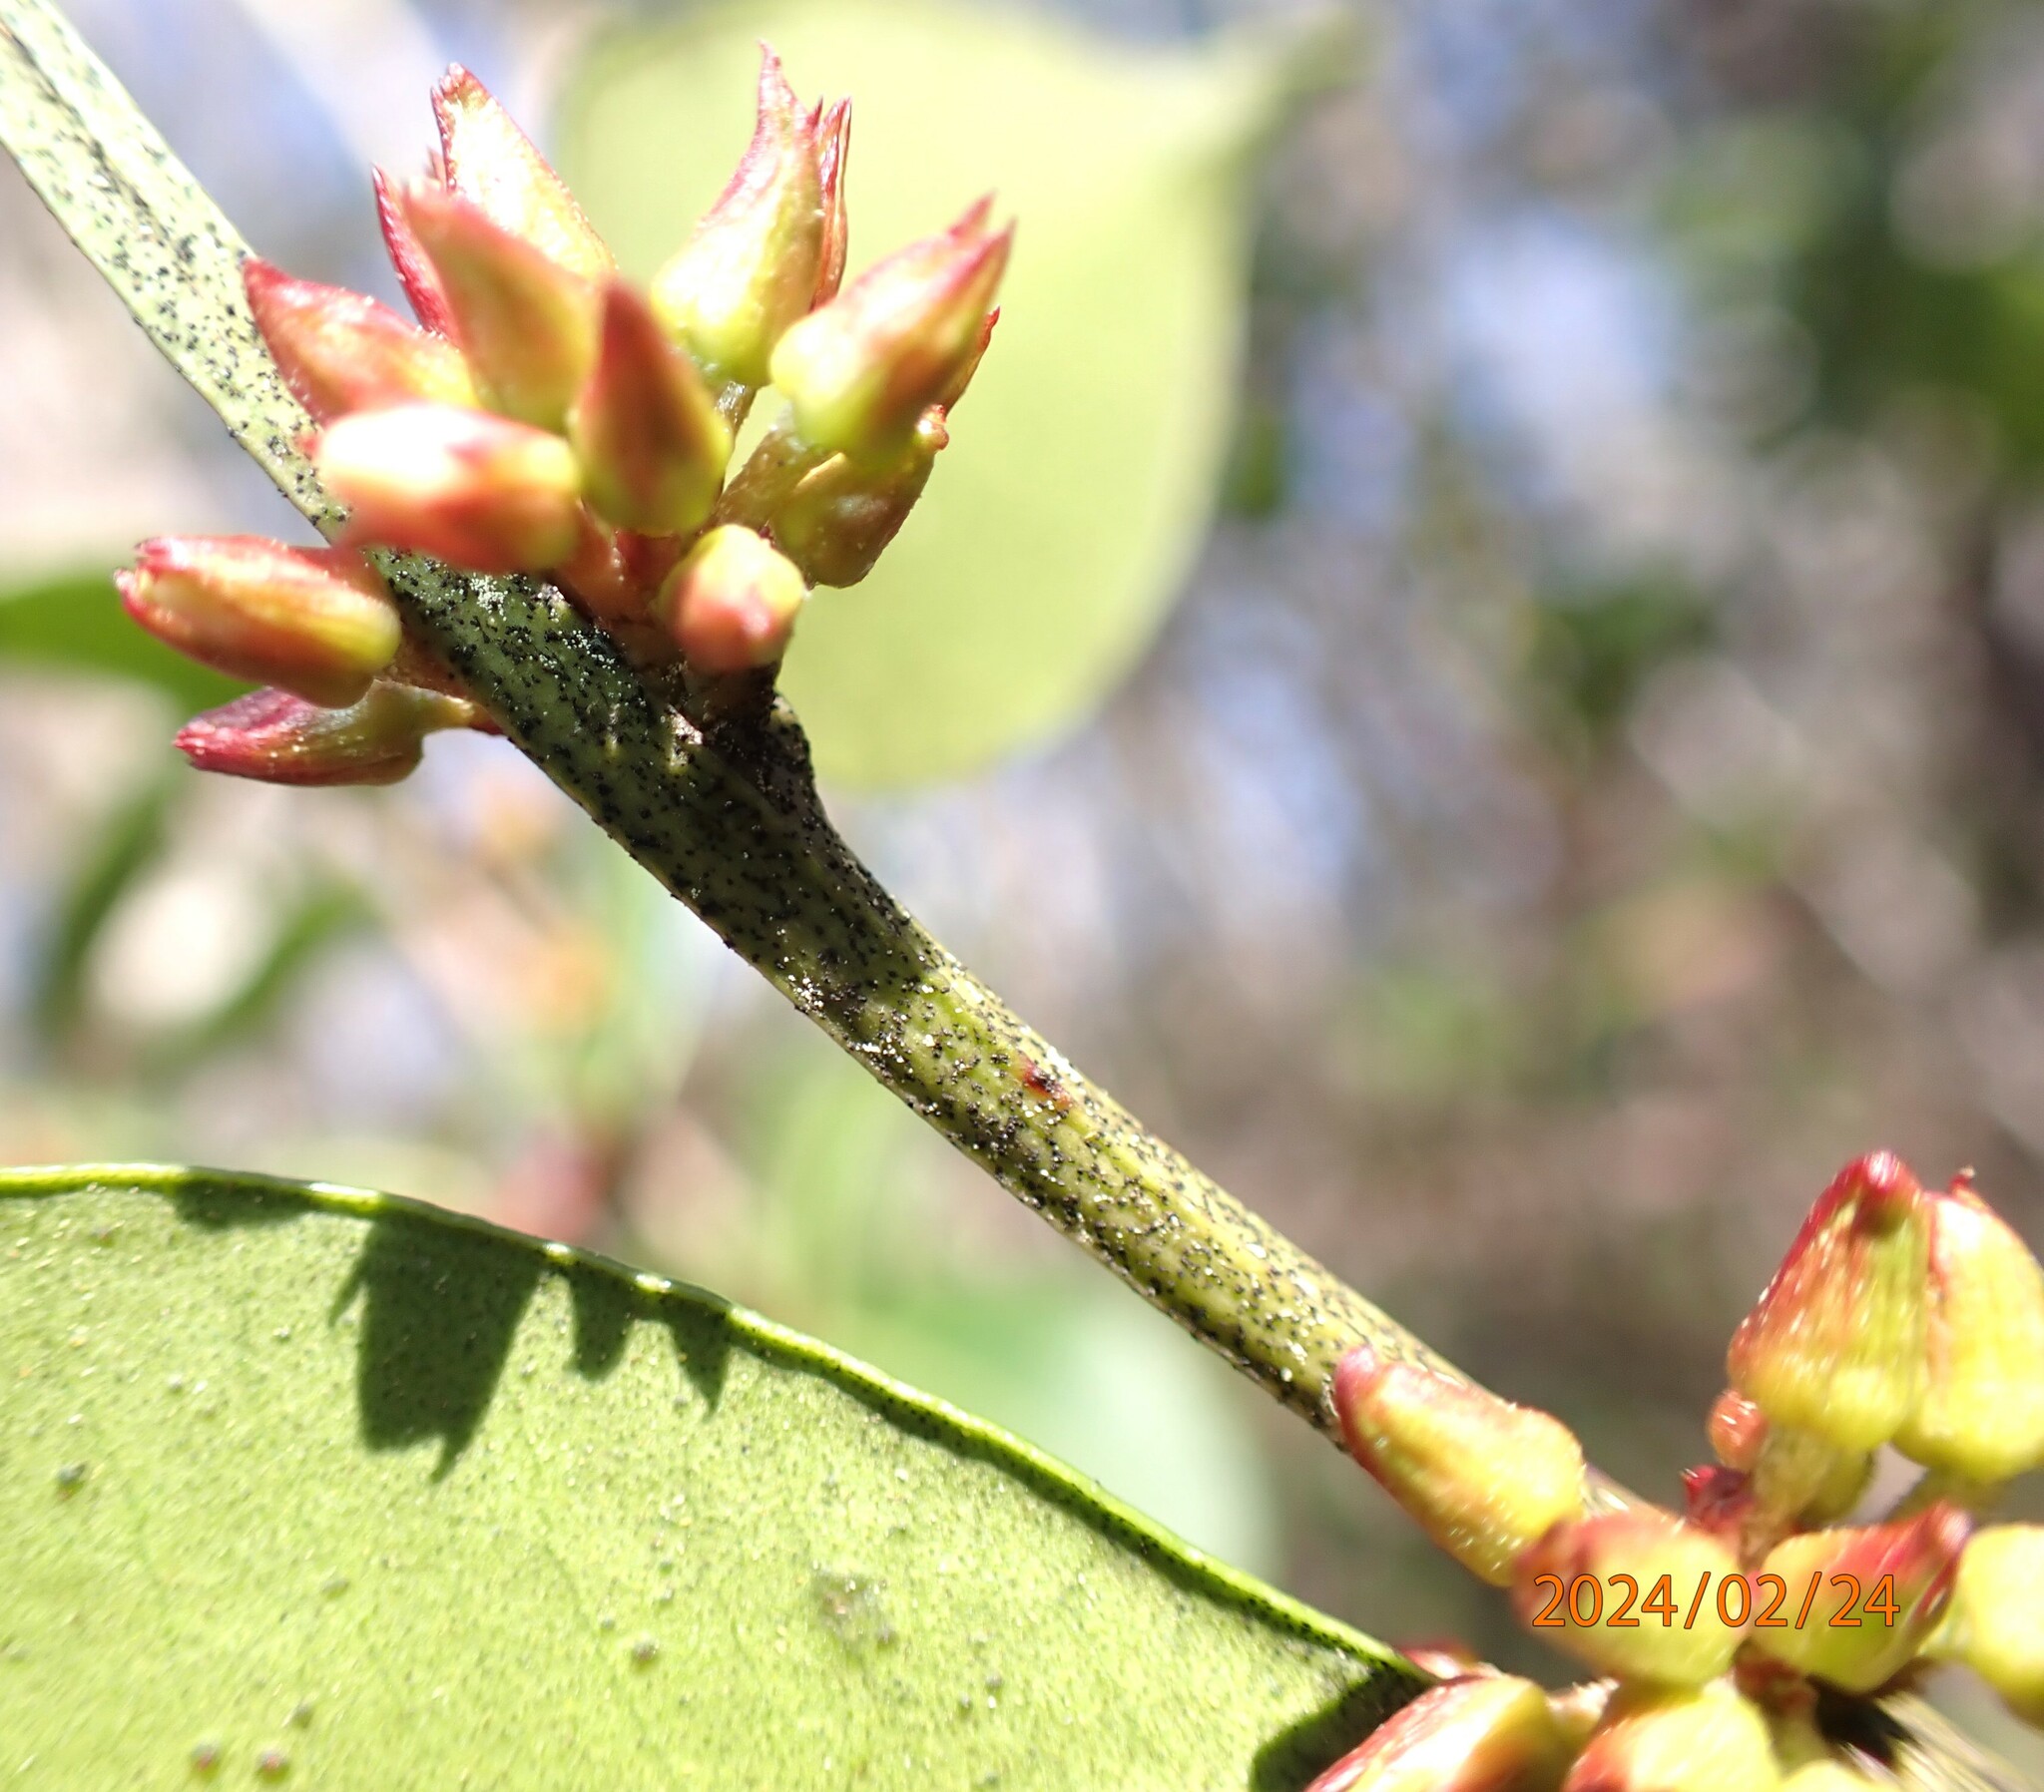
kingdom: Plantae
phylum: Tracheophyta
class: Magnoliopsida
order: Ericales
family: Ericaceae
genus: Lyonia
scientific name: Lyonia lucida
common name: Fetterbush
